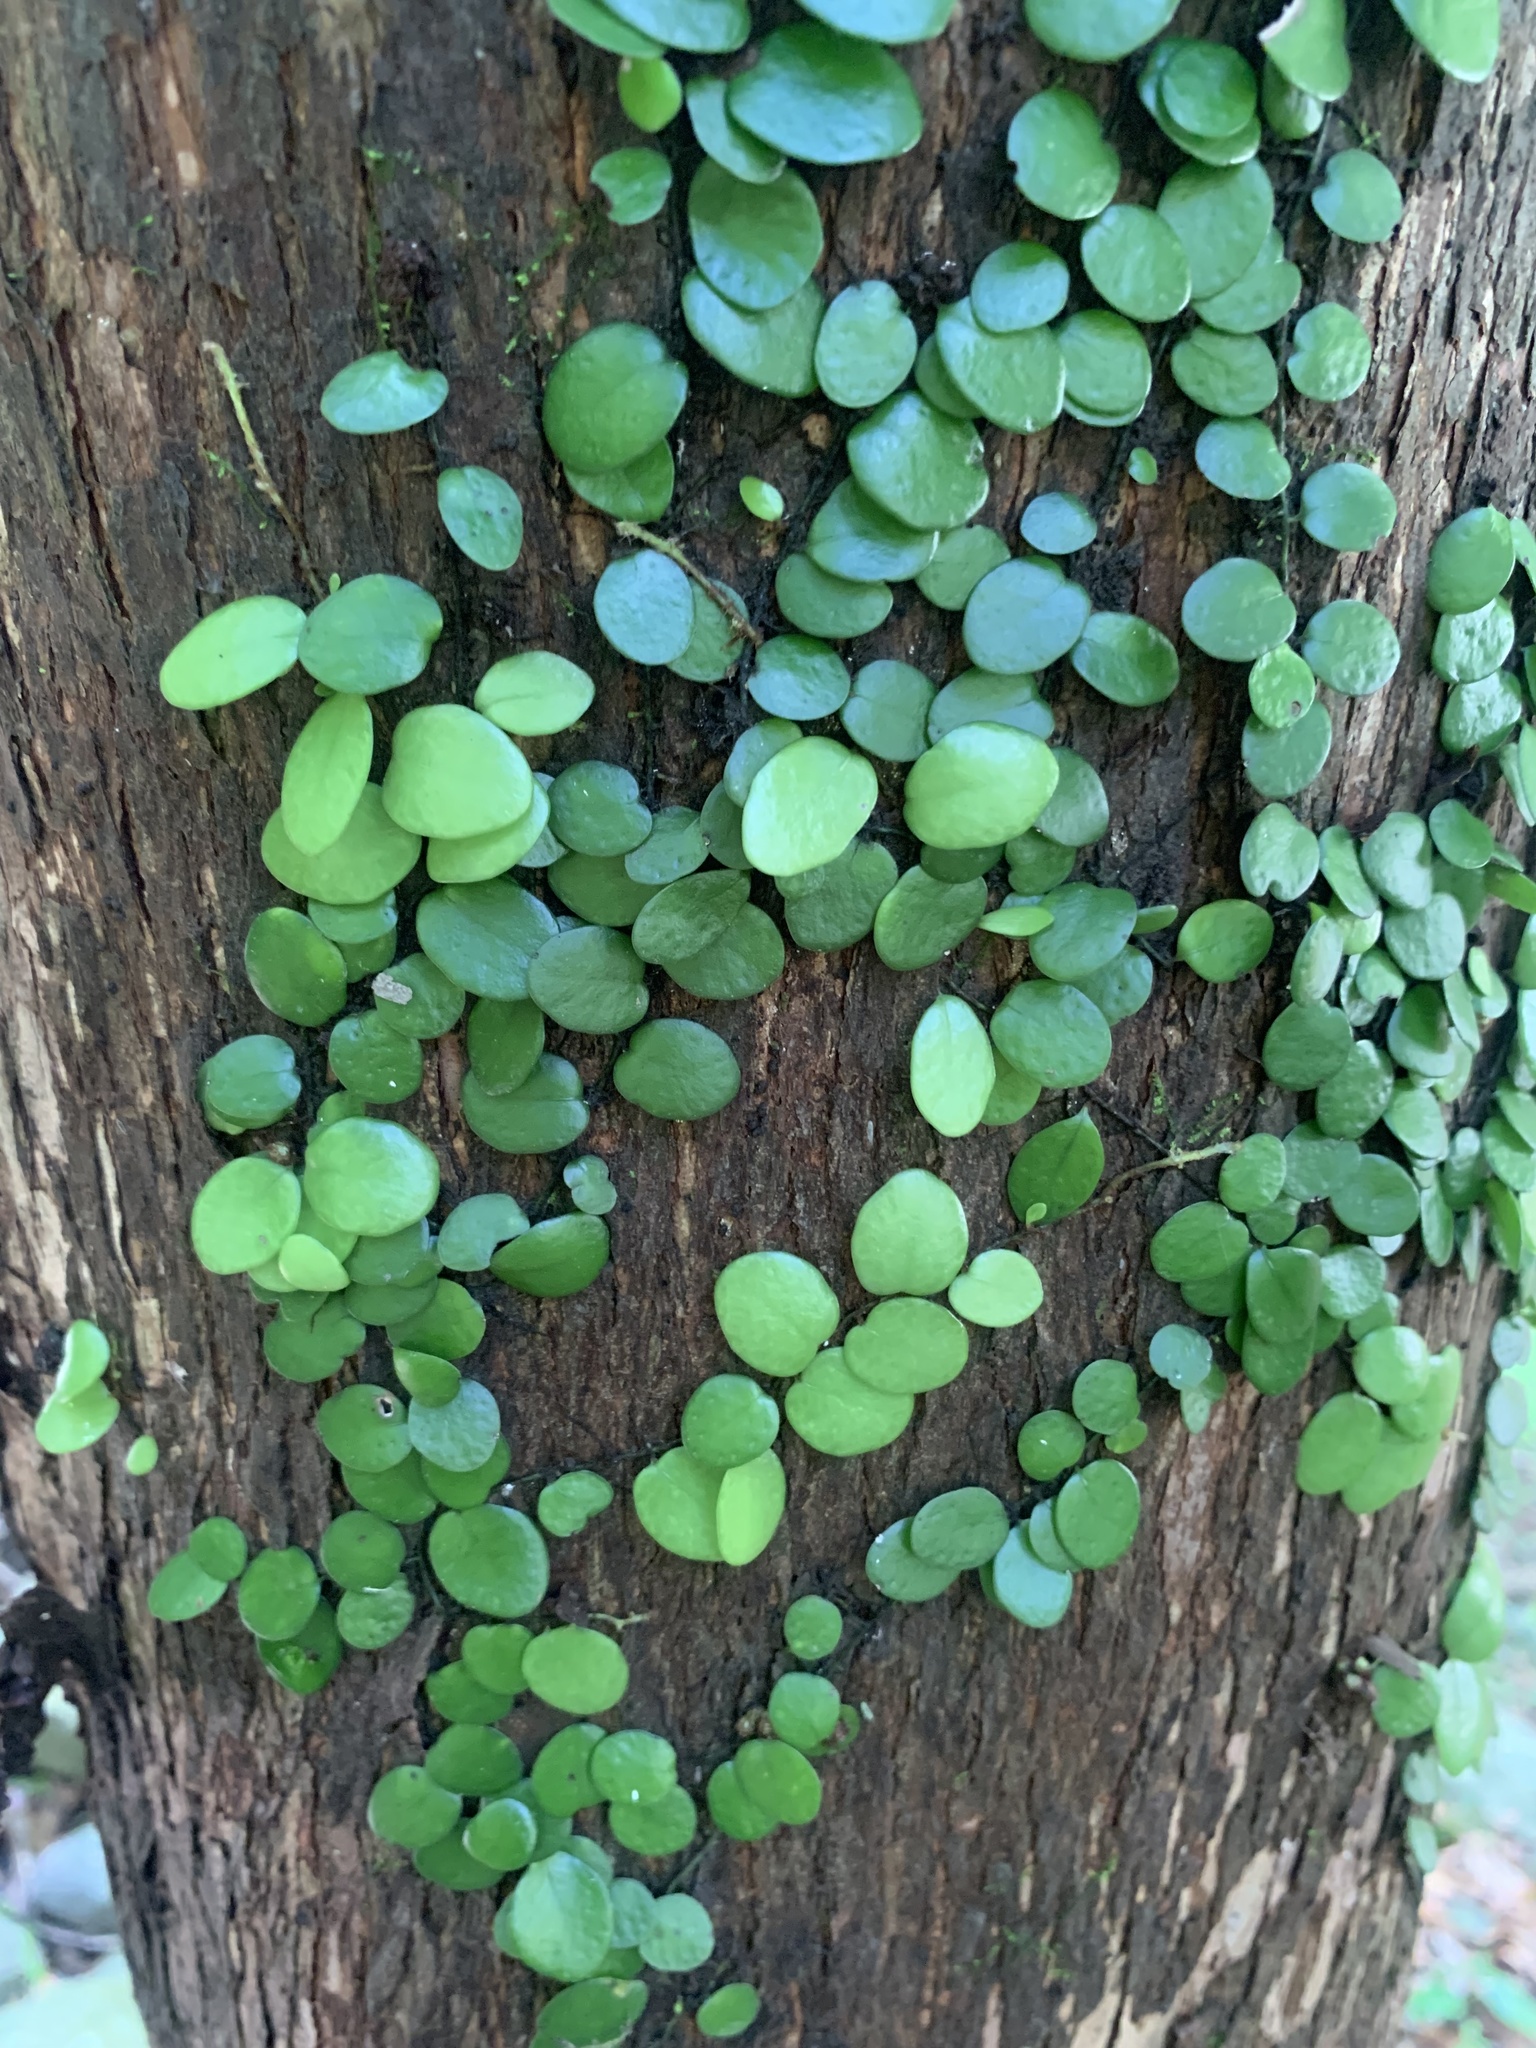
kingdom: Plantae
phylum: Tracheophyta
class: Polypodiopsida
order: Polypodiales
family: Polypodiaceae
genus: Lepisorus
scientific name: Lepisorus microphyllus
